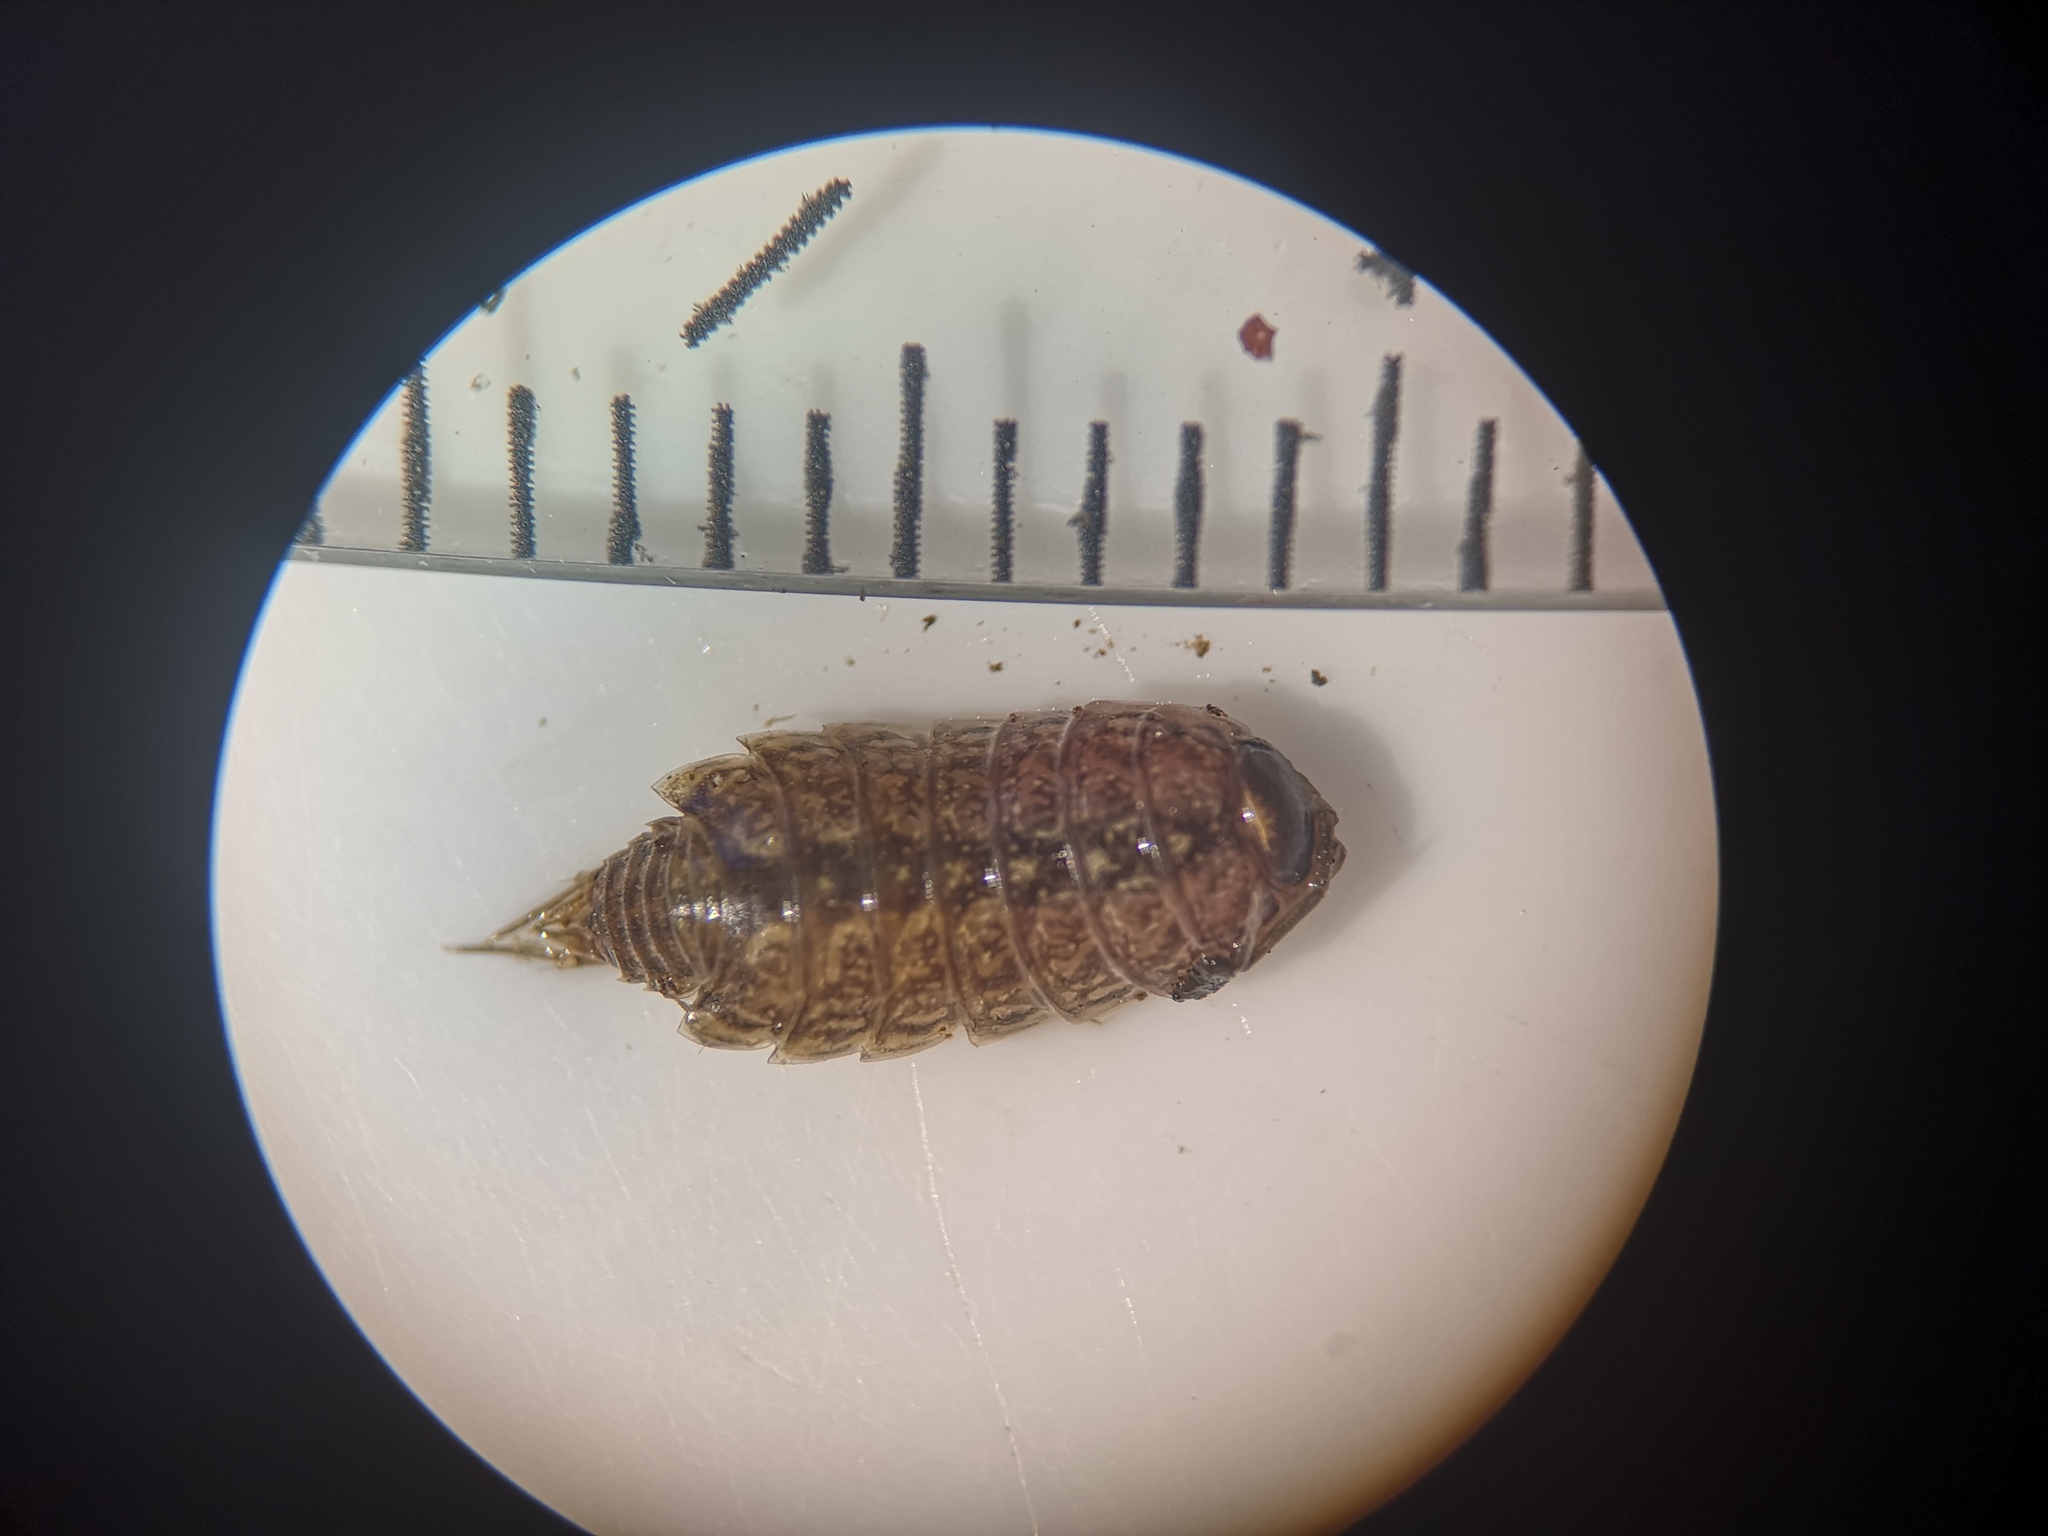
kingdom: Animalia
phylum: Arthropoda
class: Malacostraca
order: Isopoda
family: Philosciidae
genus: Philoscia
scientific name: Philoscia muscorum
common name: Common striped woodlouse
